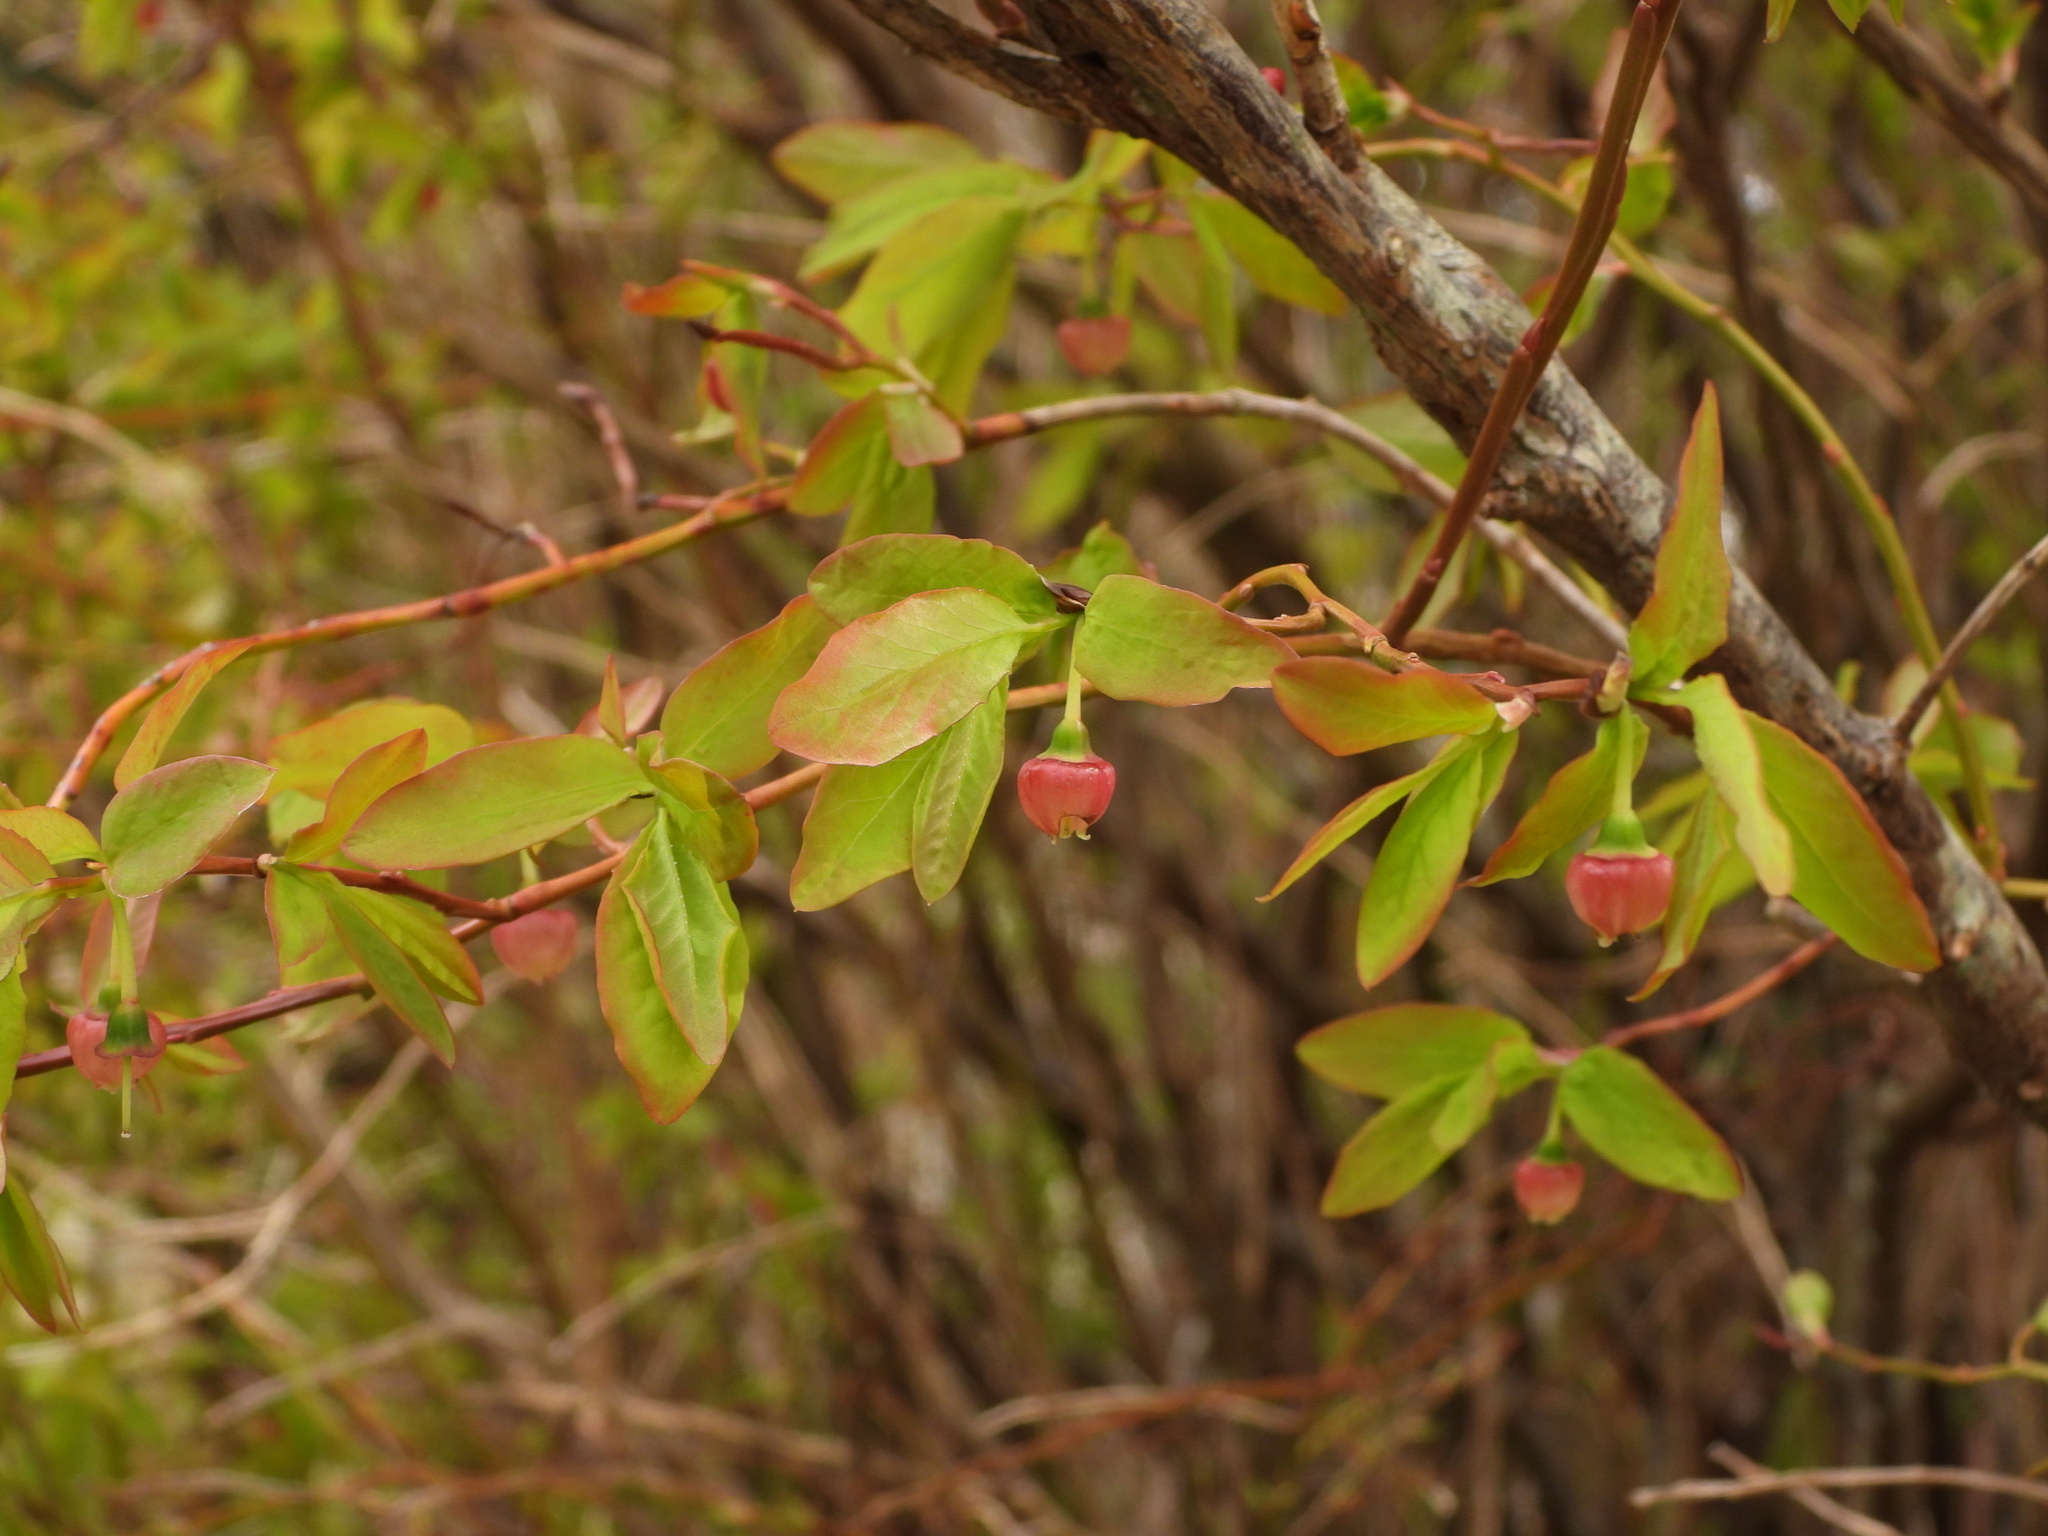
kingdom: Plantae
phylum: Tracheophyta
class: Magnoliopsida
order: Ericales
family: Ericaceae
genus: Vaccinium
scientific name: Vaccinium ovalifolium
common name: Early blueberry
